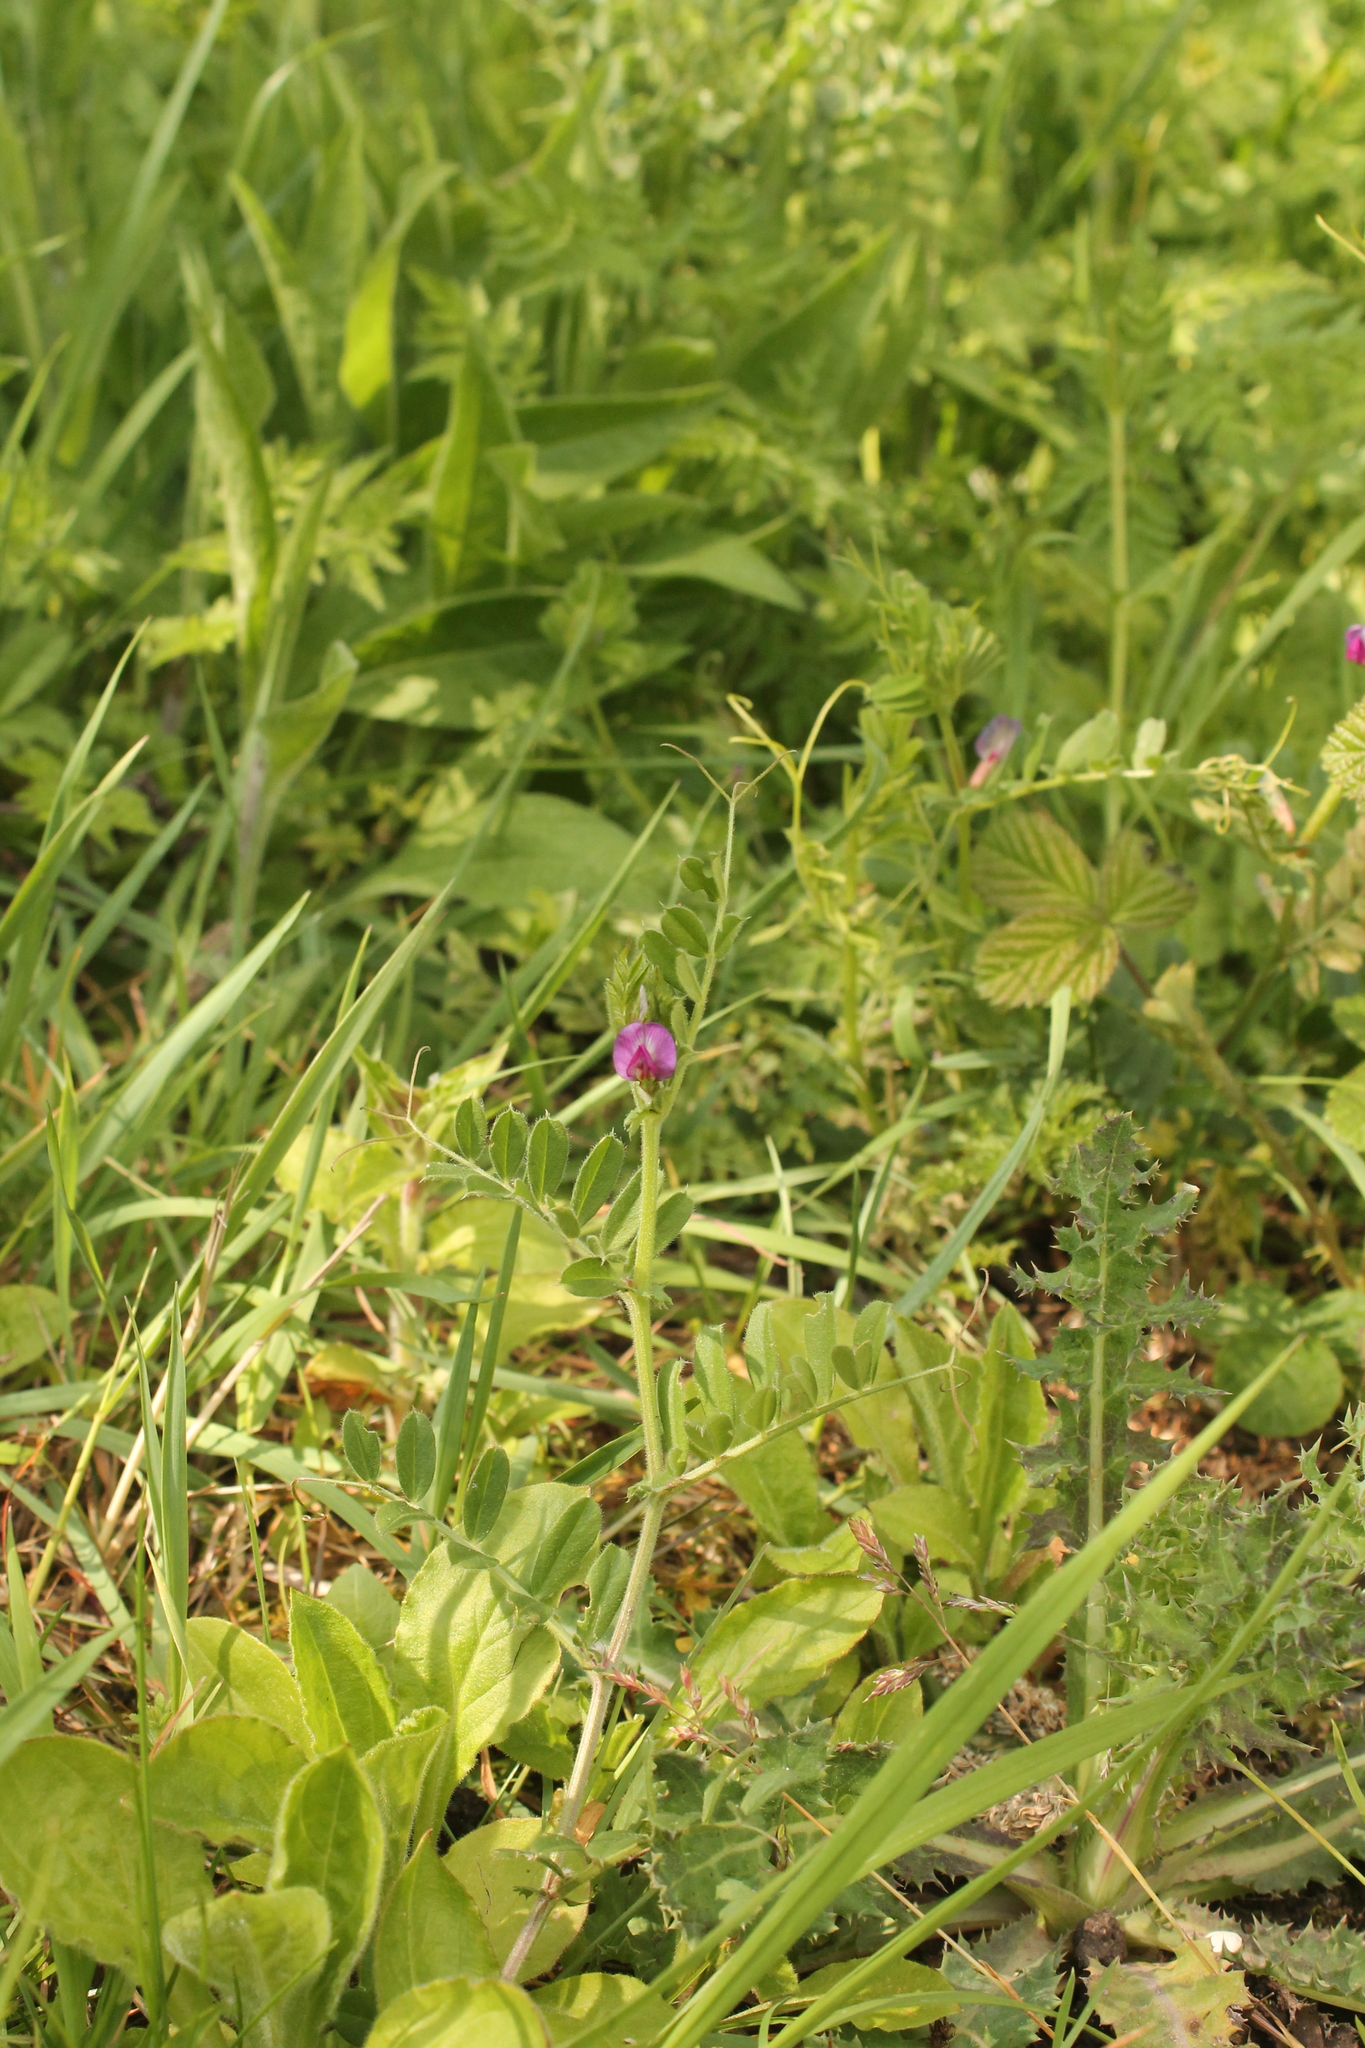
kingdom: Plantae
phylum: Tracheophyta
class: Magnoliopsida
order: Fabales
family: Fabaceae
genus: Vicia
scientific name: Vicia sativa
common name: Garden vetch
